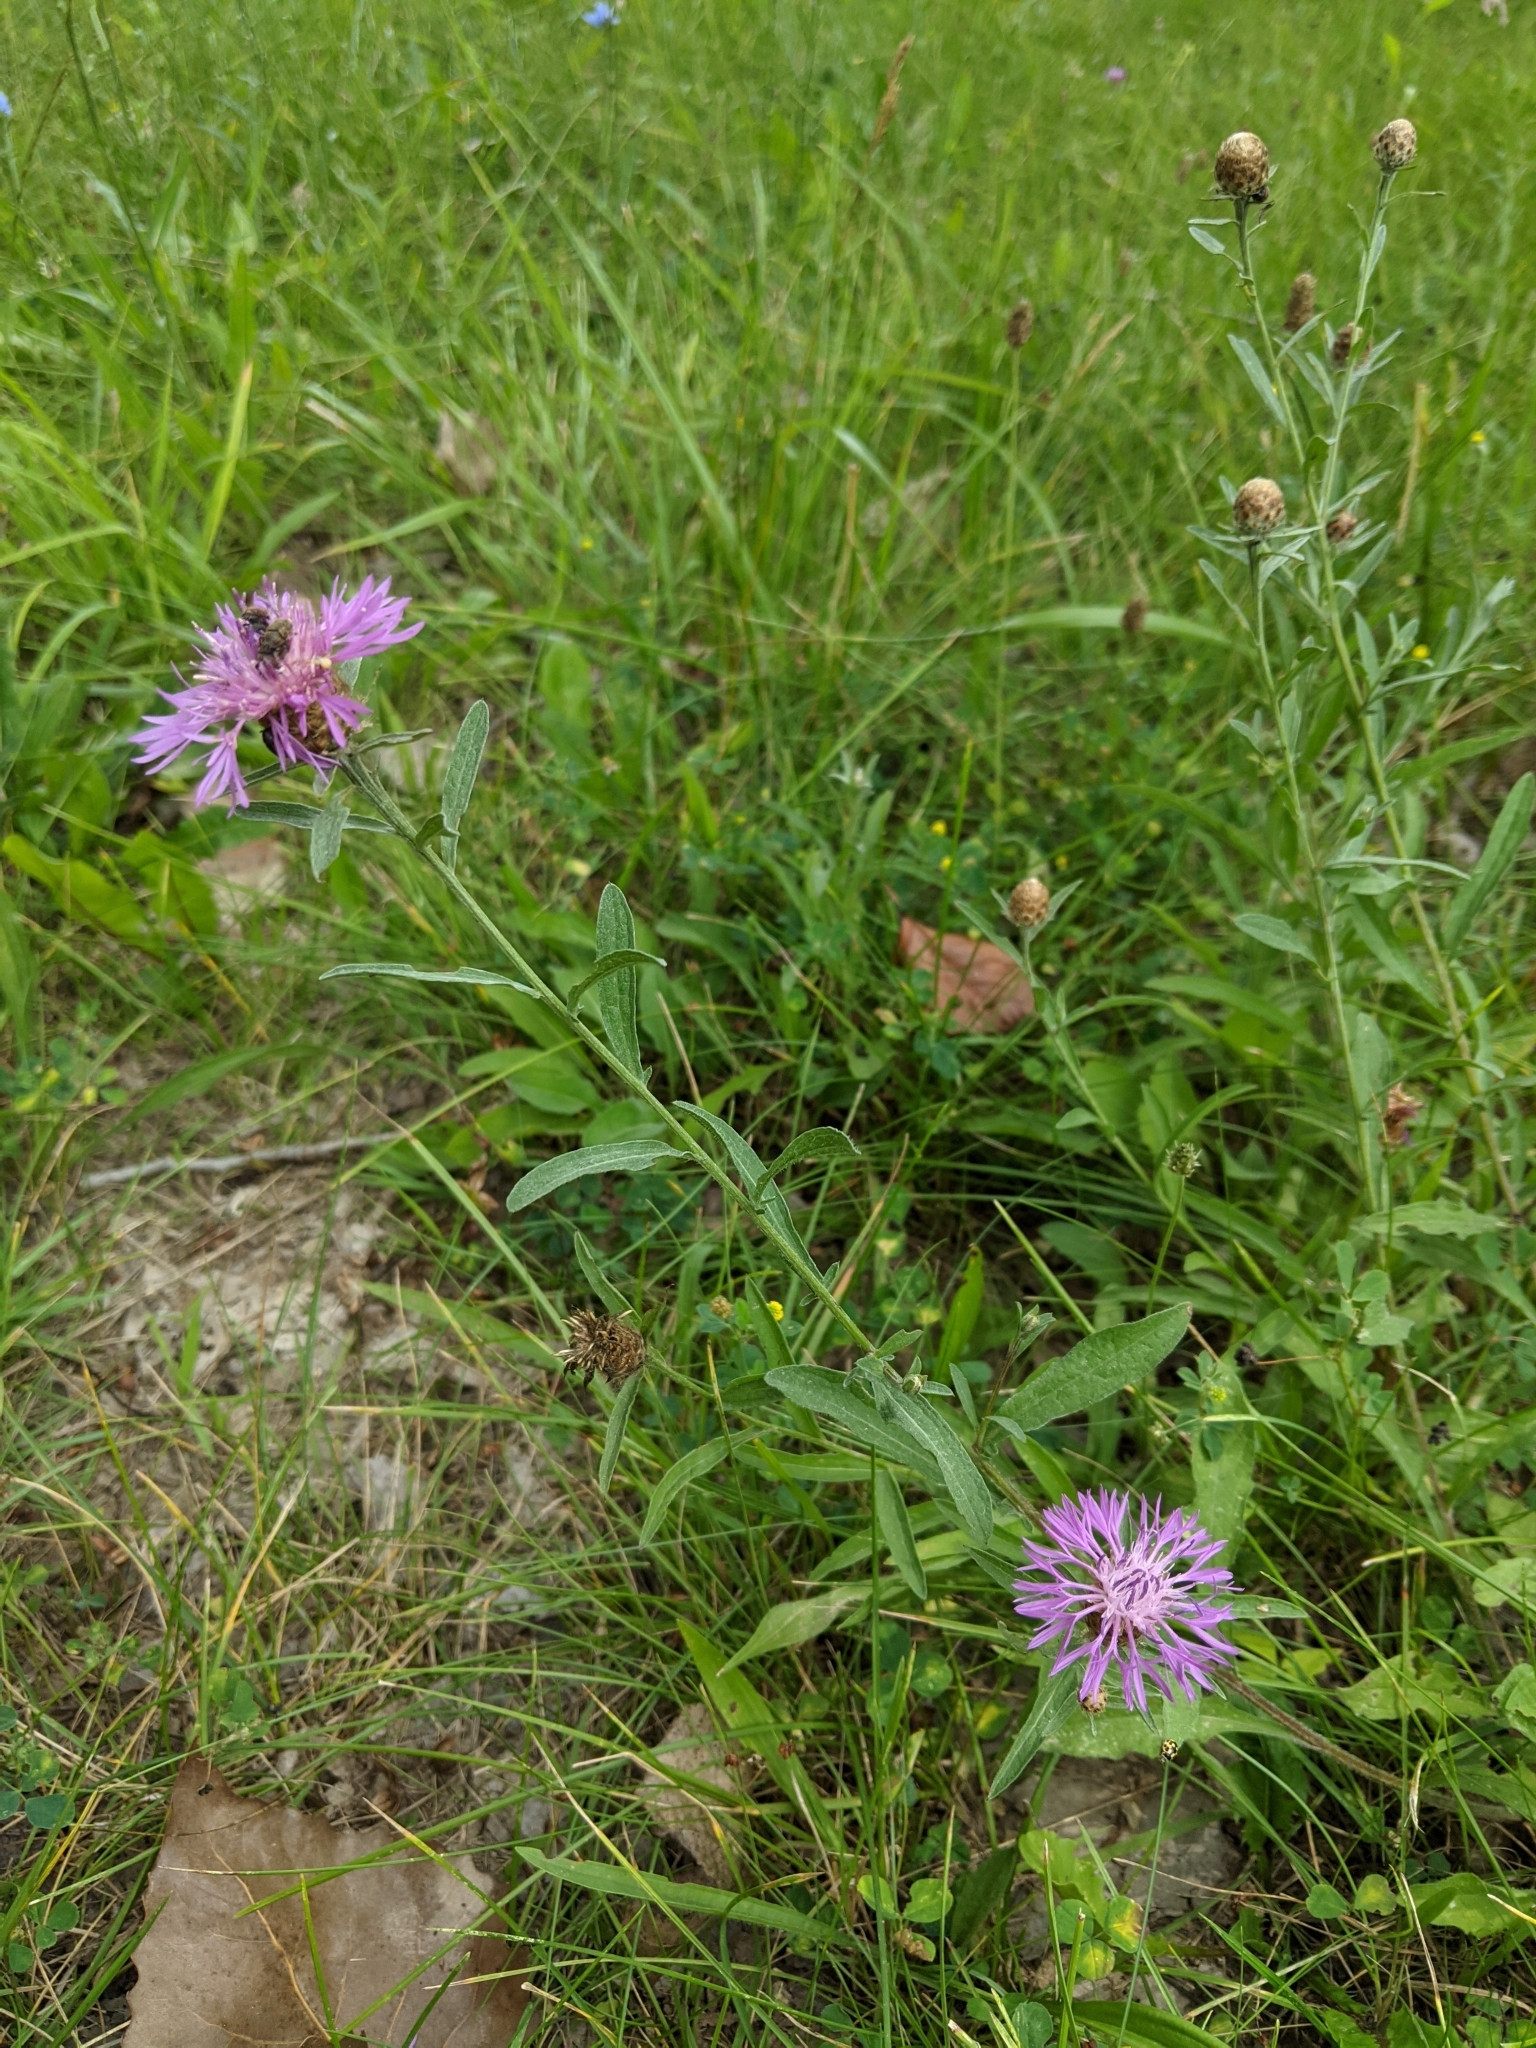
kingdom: Plantae
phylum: Tracheophyta
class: Magnoliopsida
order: Asterales
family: Asteraceae
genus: Centaurea
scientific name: Centaurea jacea
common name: Brown knapweed
